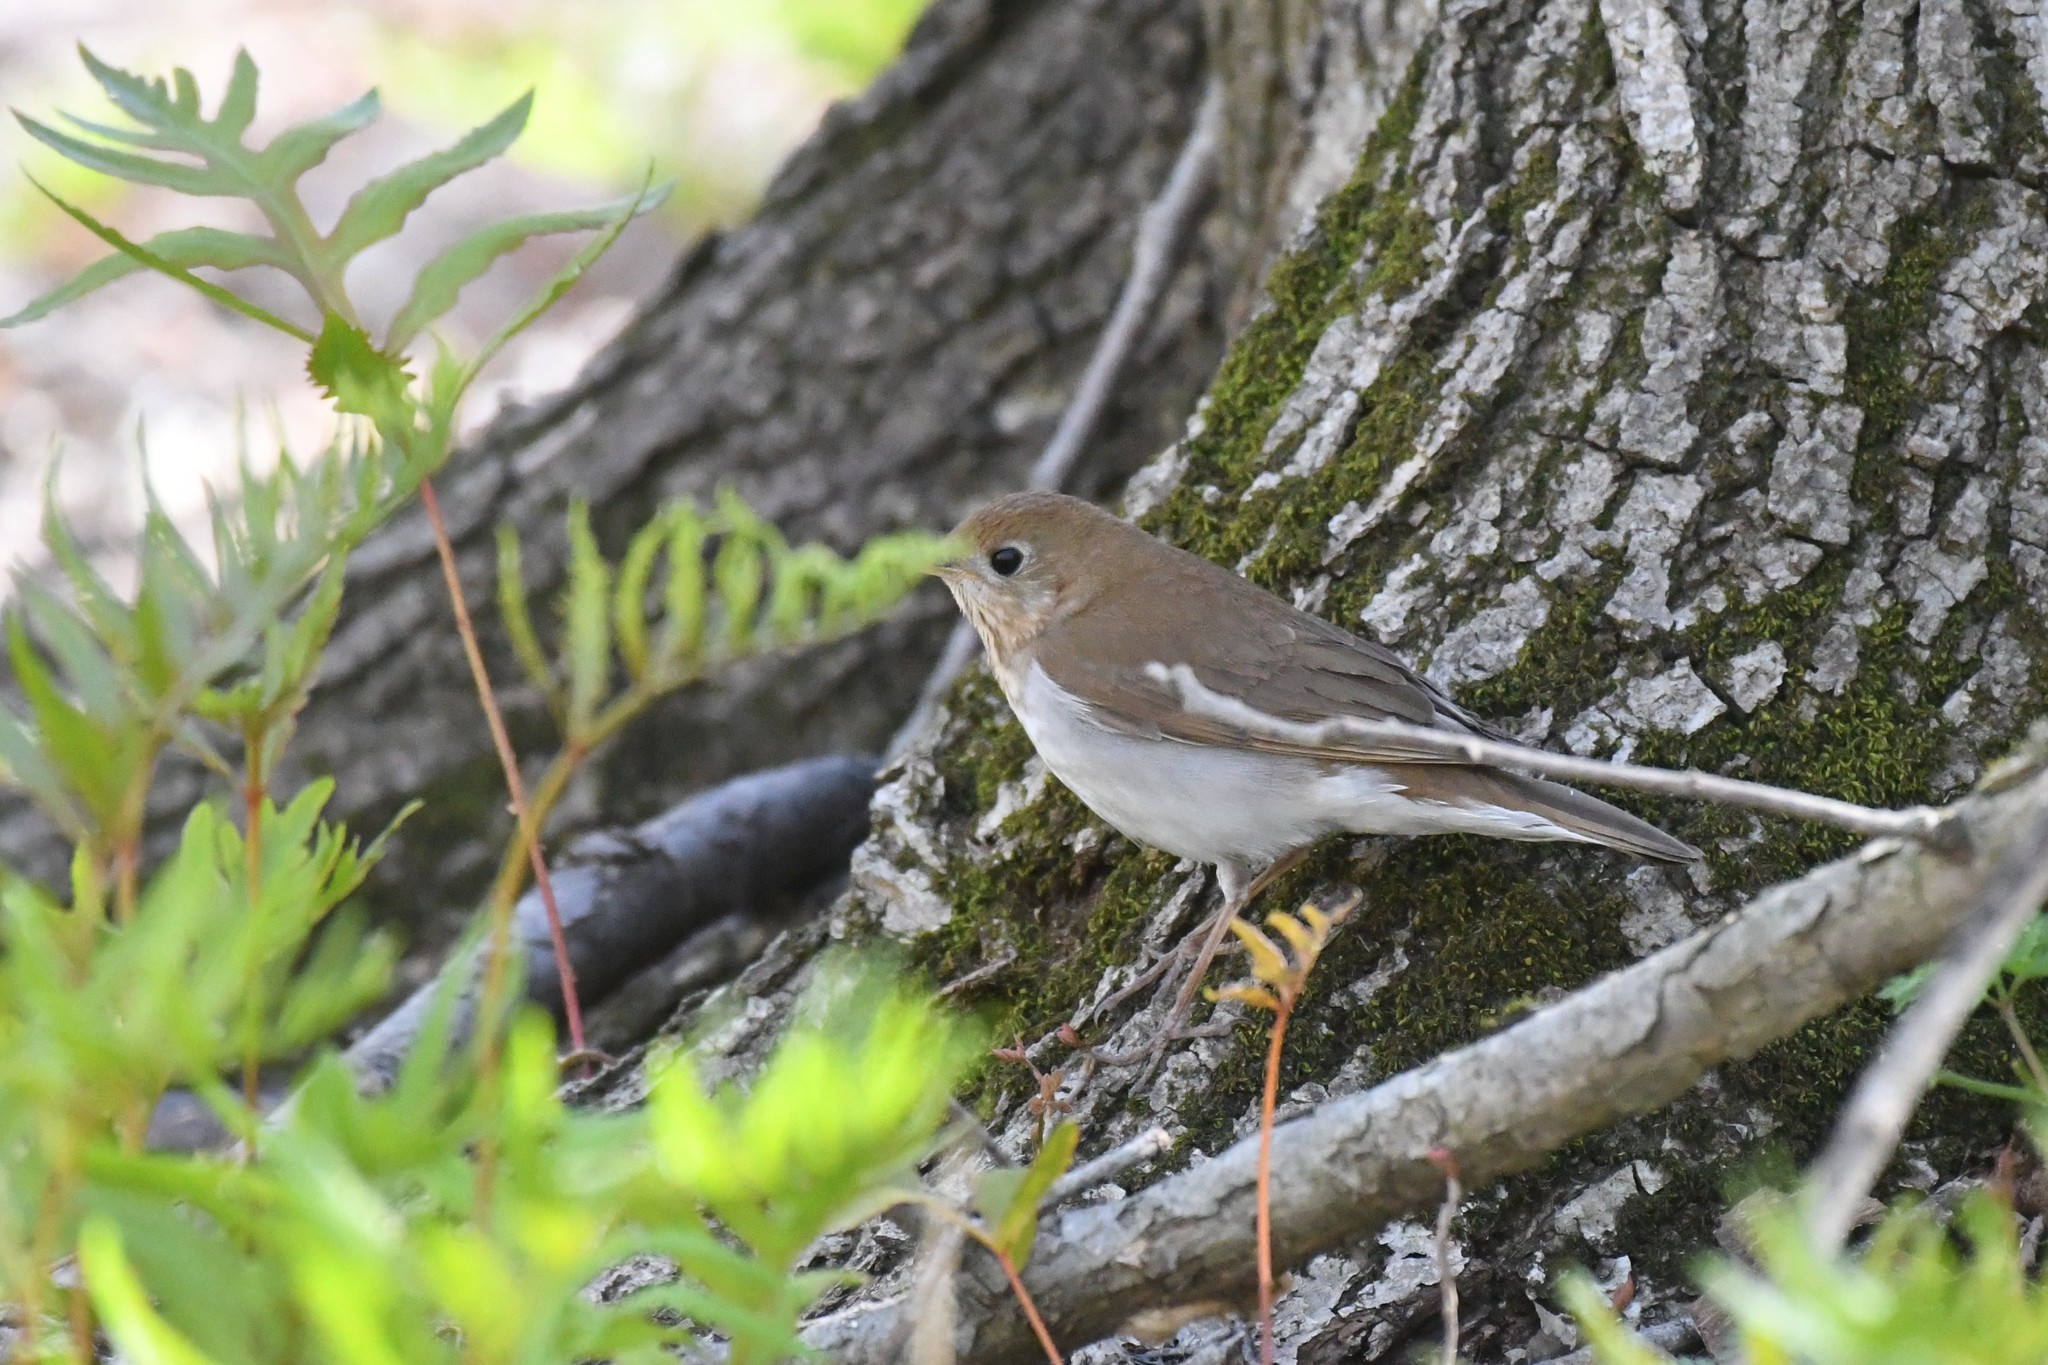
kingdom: Animalia
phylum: Chordata
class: Aves
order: Passeriformes
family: Turdidae
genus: Catharus
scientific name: Catharus fuscescens
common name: Veery
